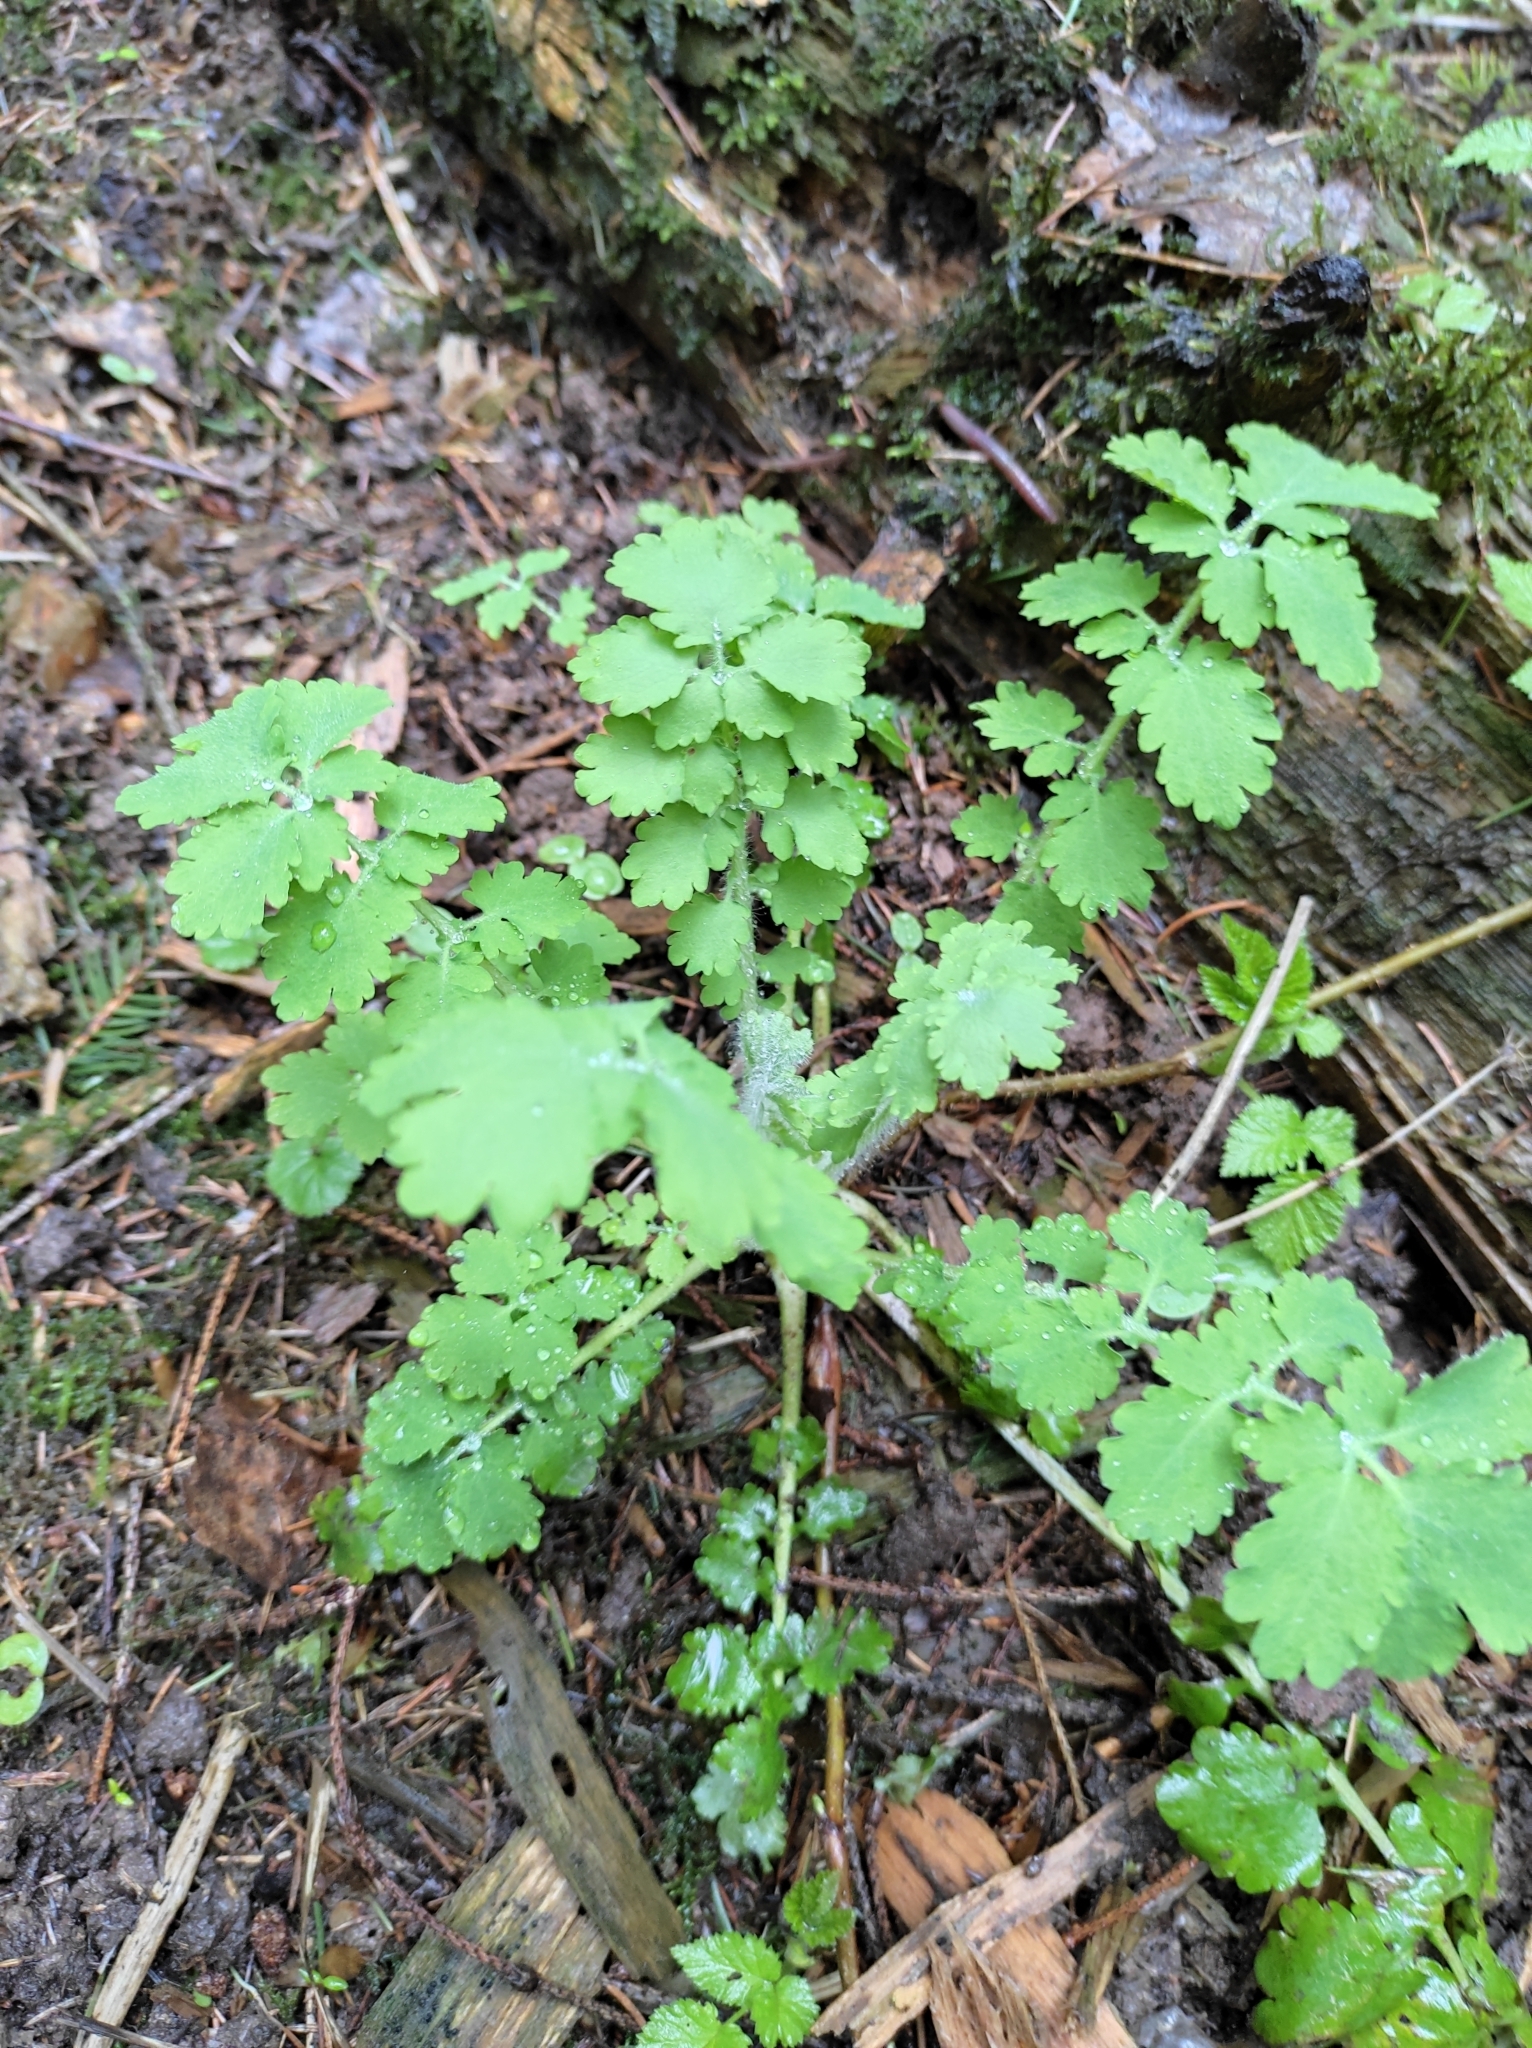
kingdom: Plantae
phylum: Tracheophyta
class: Magnoliopsida
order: Ranunculales
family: Papaveraceae
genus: Chelidonium
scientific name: Chelidonium majus
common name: Greater celandine
